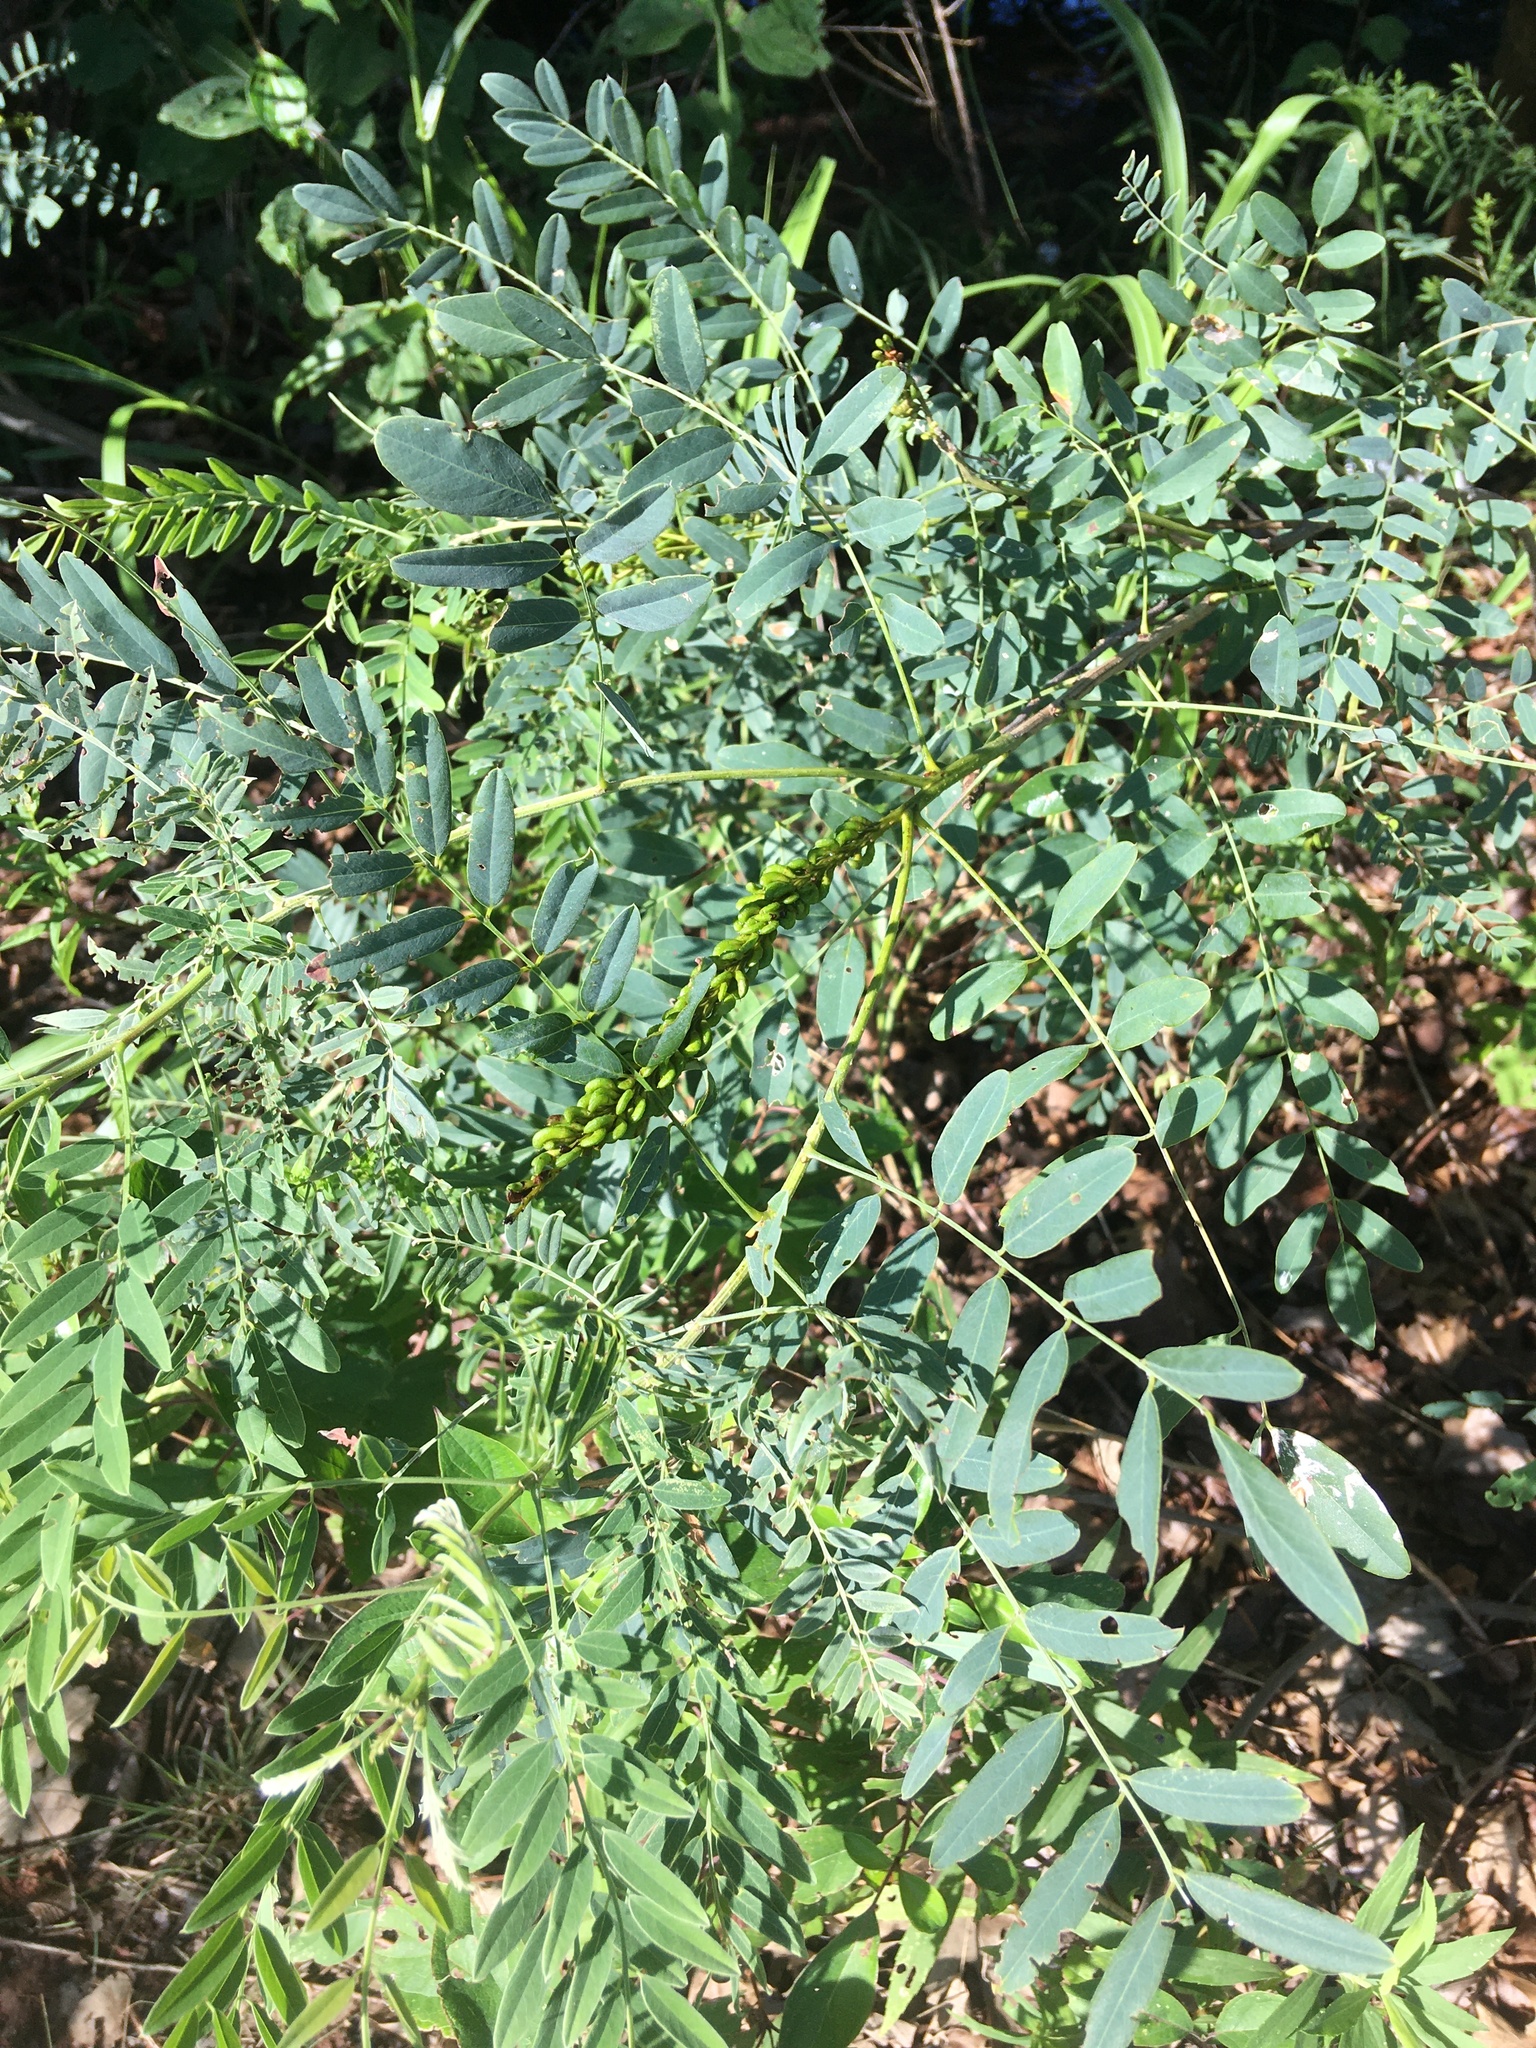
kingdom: Plantae
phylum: Tracheophyta
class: Magnoliopsida
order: Fabales
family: Fabaceae
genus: Amorpha
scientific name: Amorpha fruticosa
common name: False indigo
